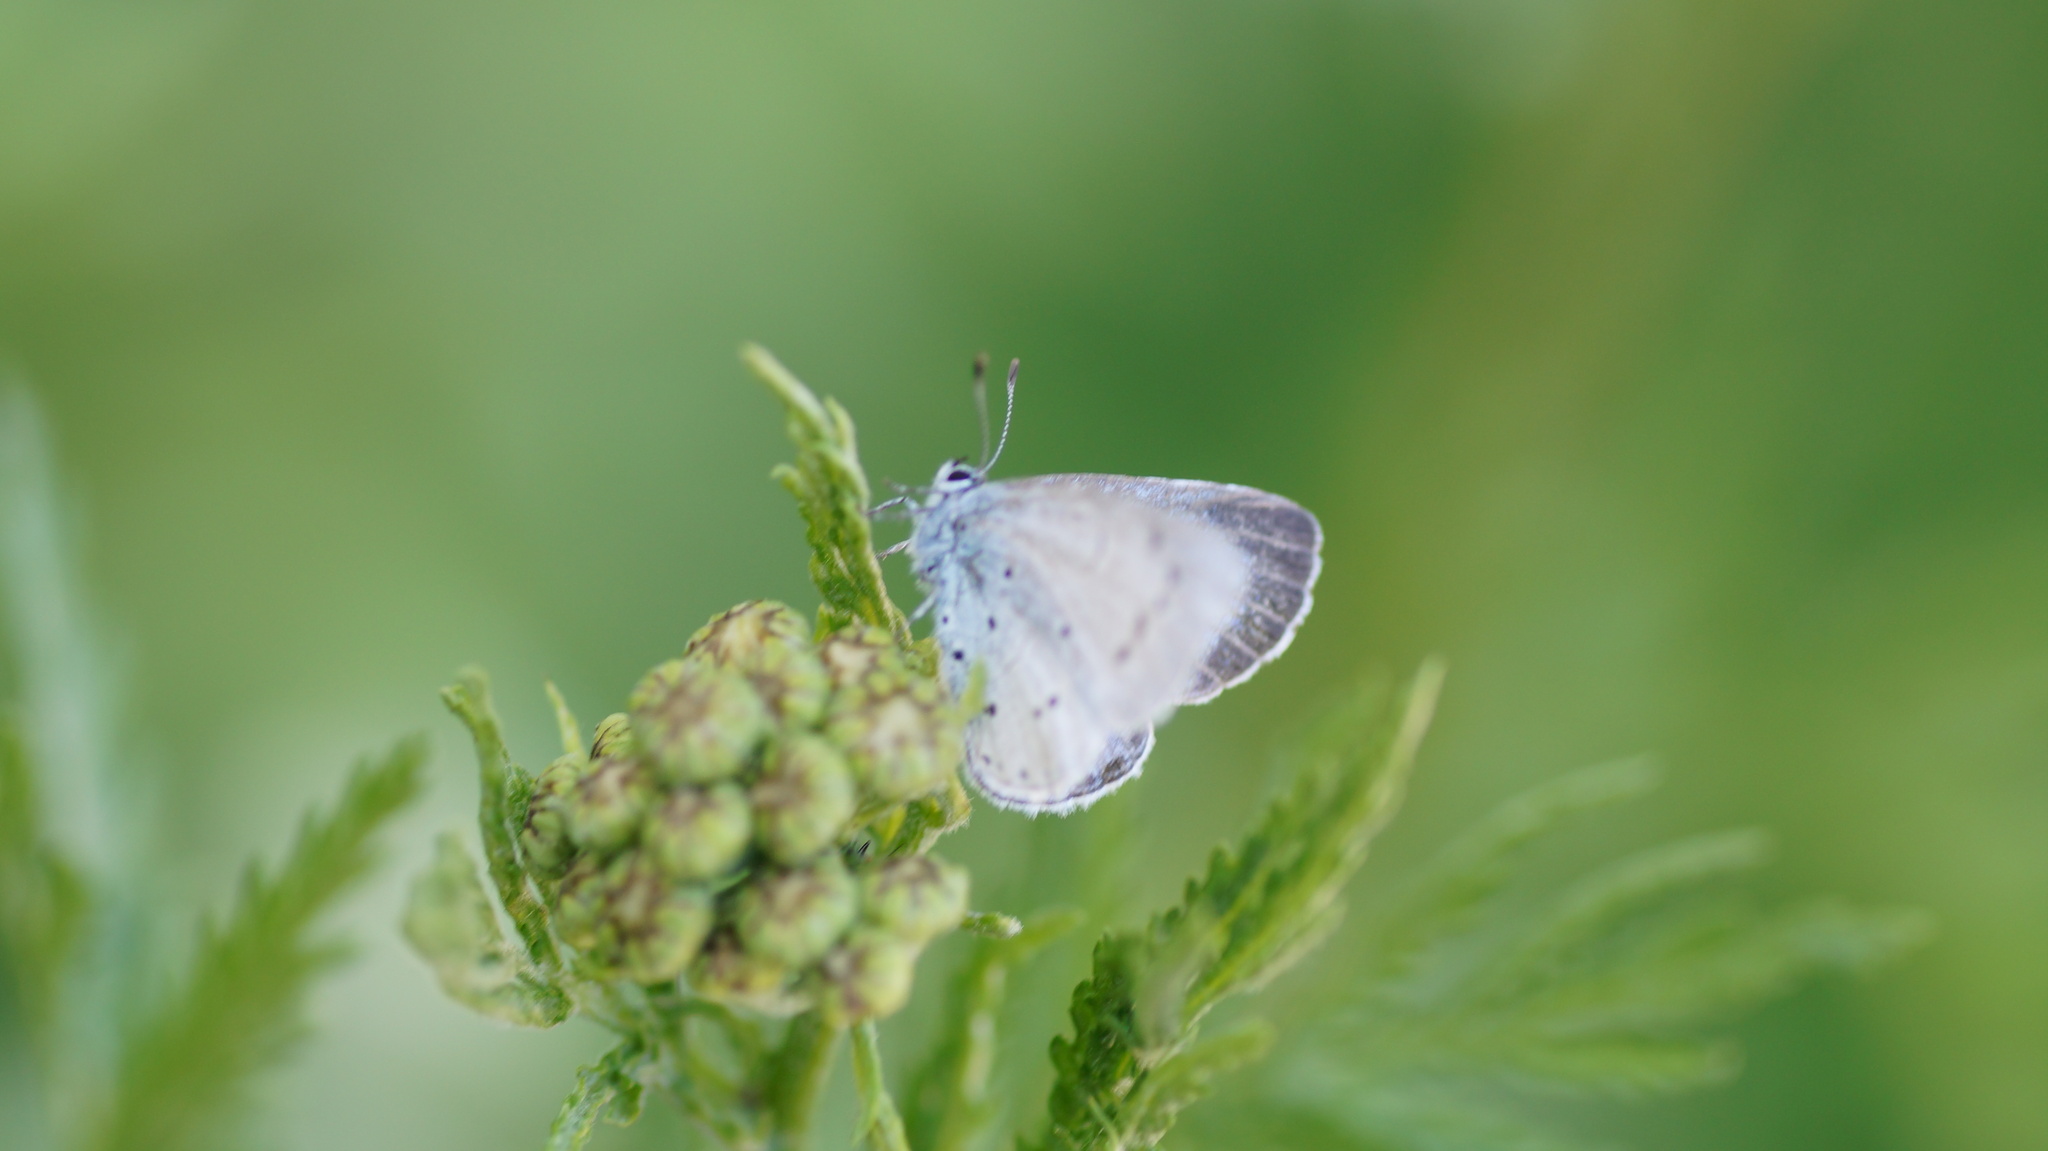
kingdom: Animalia
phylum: Arthropoda
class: Insecta
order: Lepidoptera
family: Lycaenidae
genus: Celastrina
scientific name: Celastrina argiolus
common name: Holly blue
